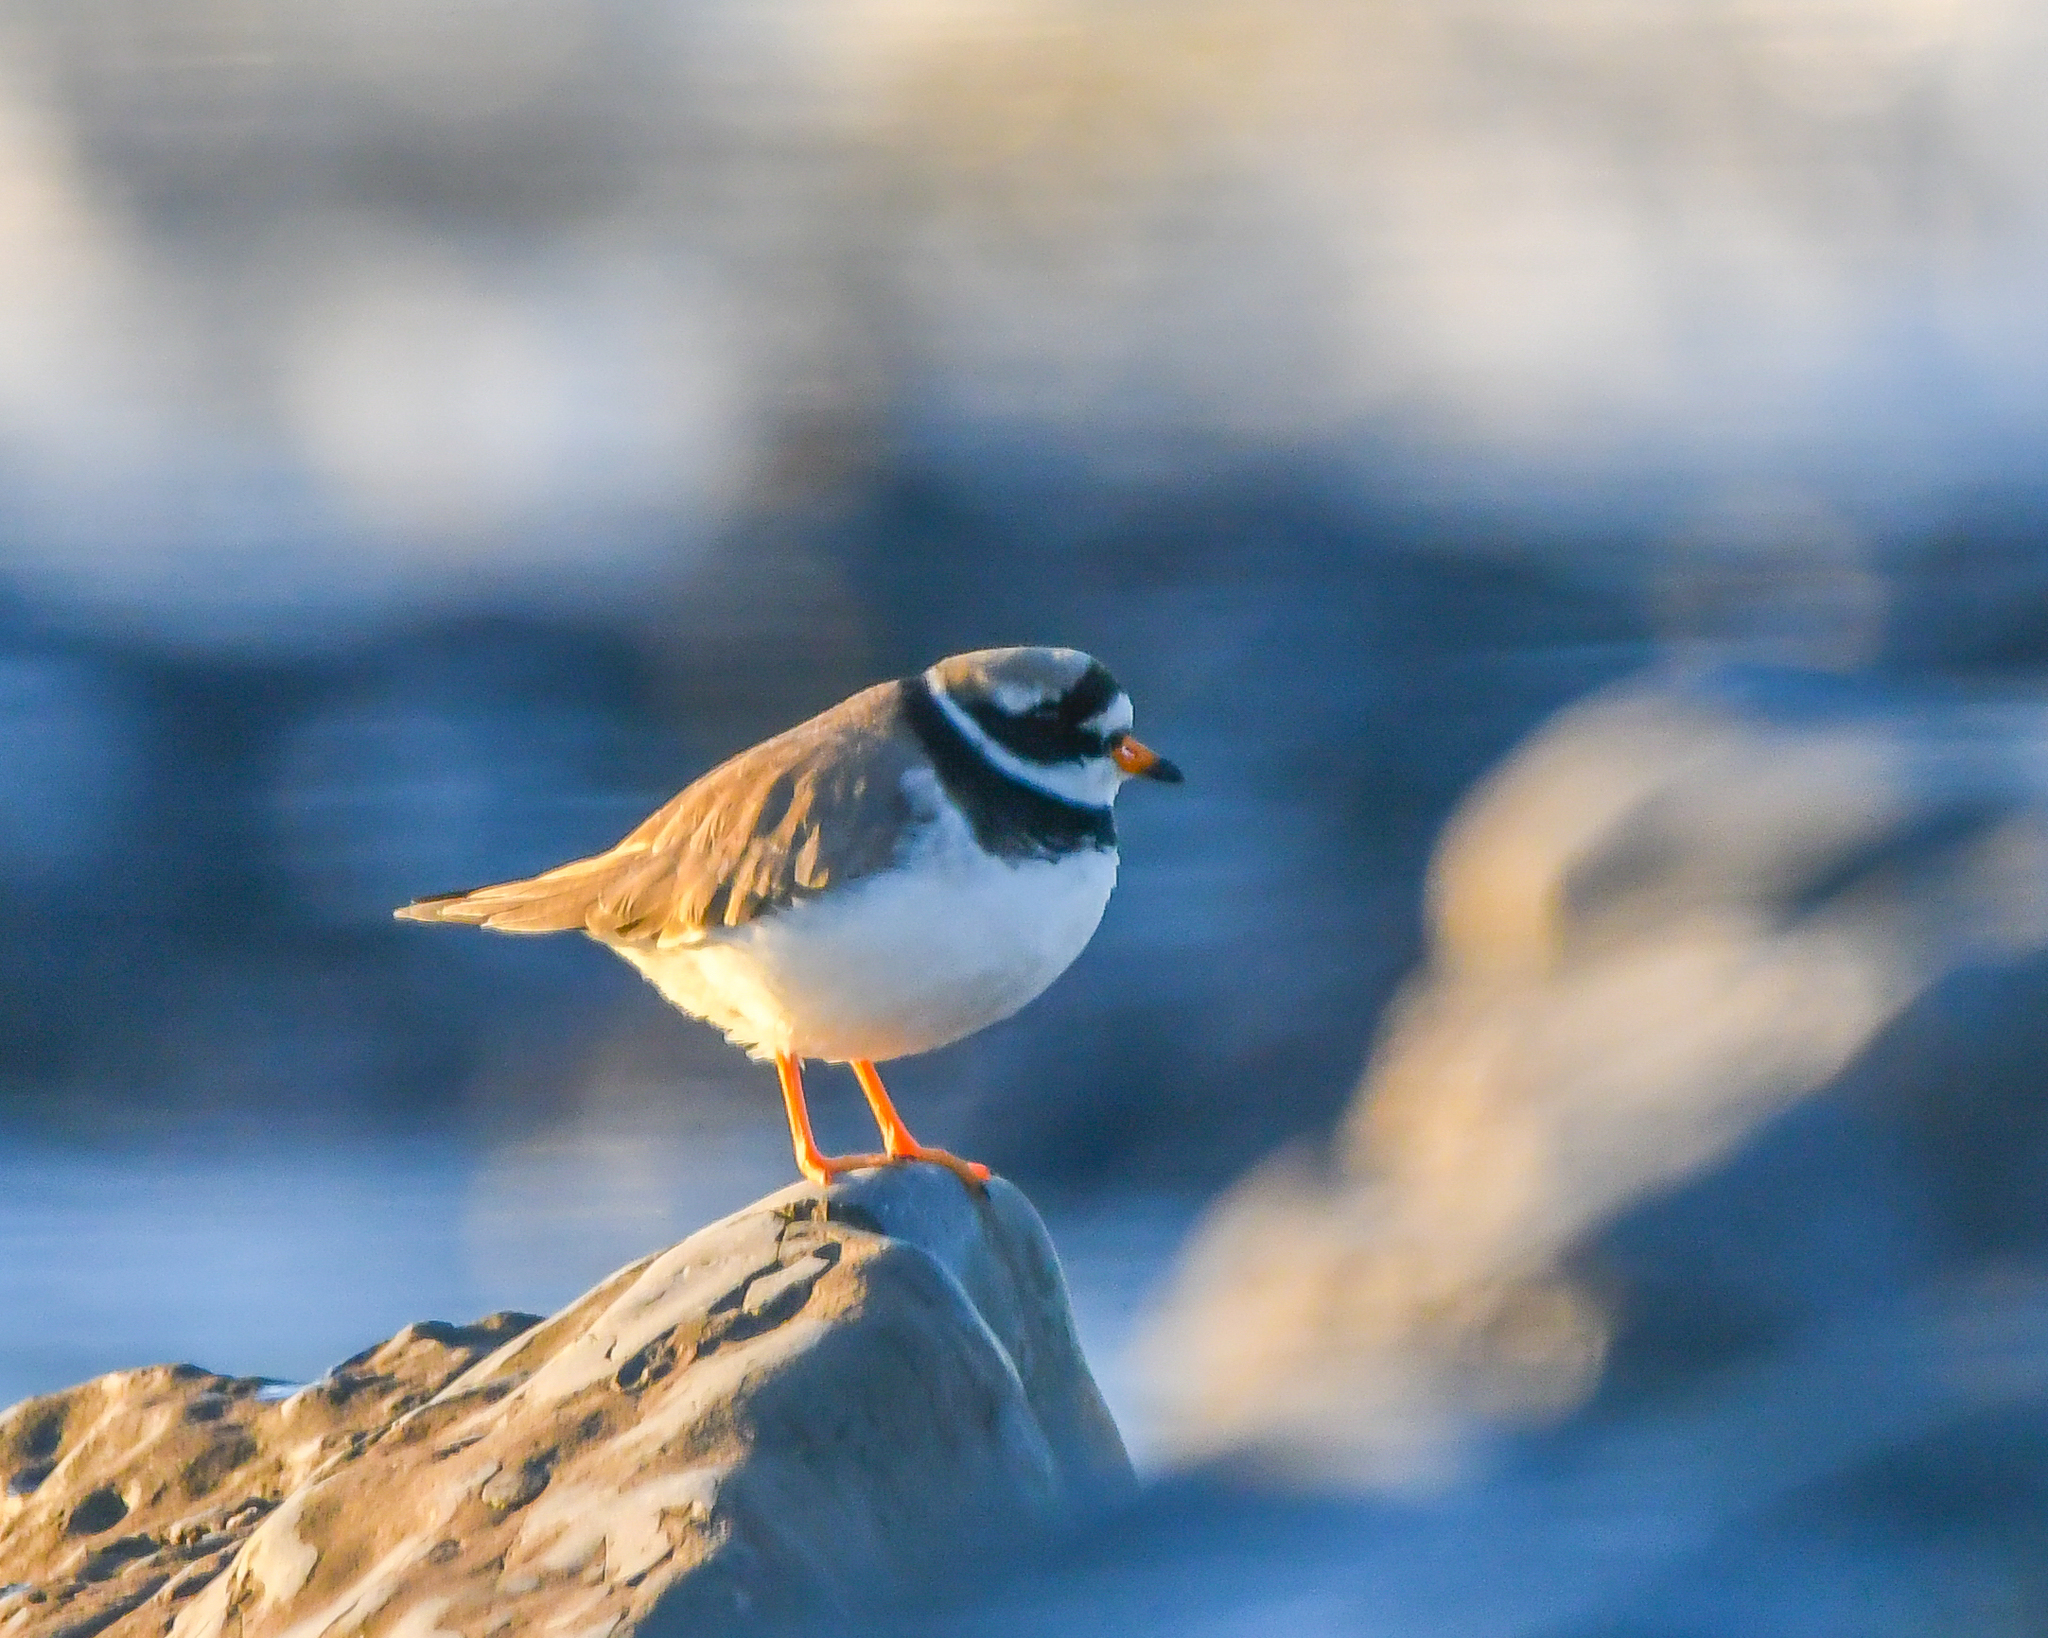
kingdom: Animalia
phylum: Chordata
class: Aves
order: Charadriiformes
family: Charadriidae
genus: Charadrius
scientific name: Charadrius hiaticula
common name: Common ringed plover
